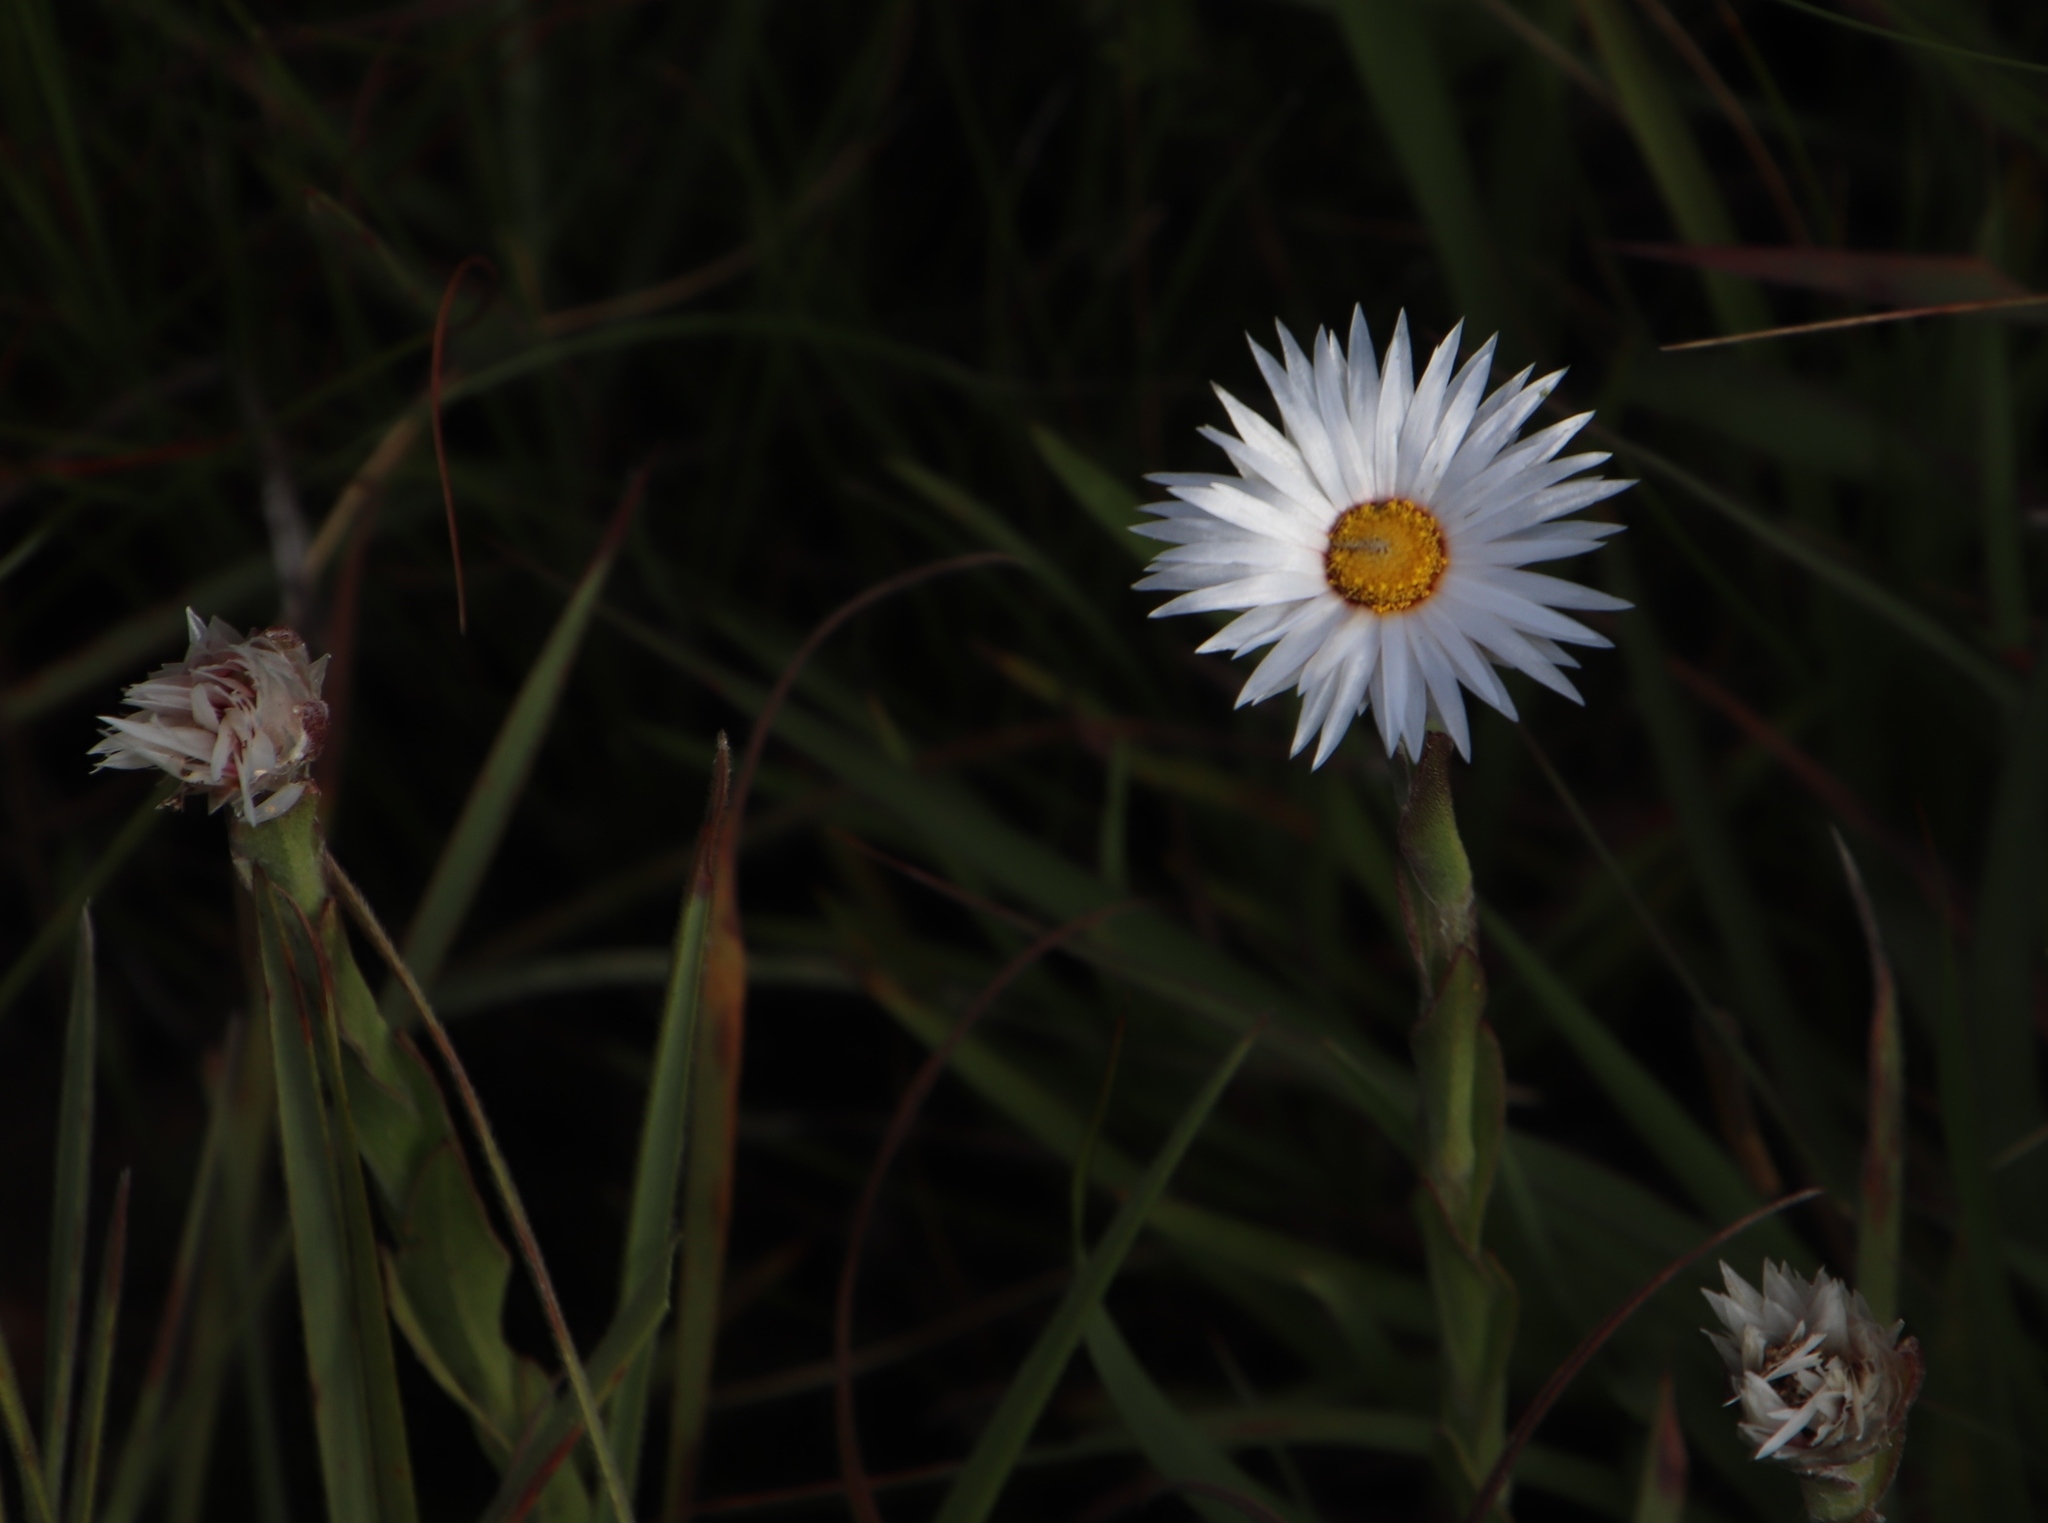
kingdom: Plantae
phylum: Tracheophyta
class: Magnoliopsida
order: Asterales
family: Asteraceae
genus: Helichrysum
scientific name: Helichrysum monticola
